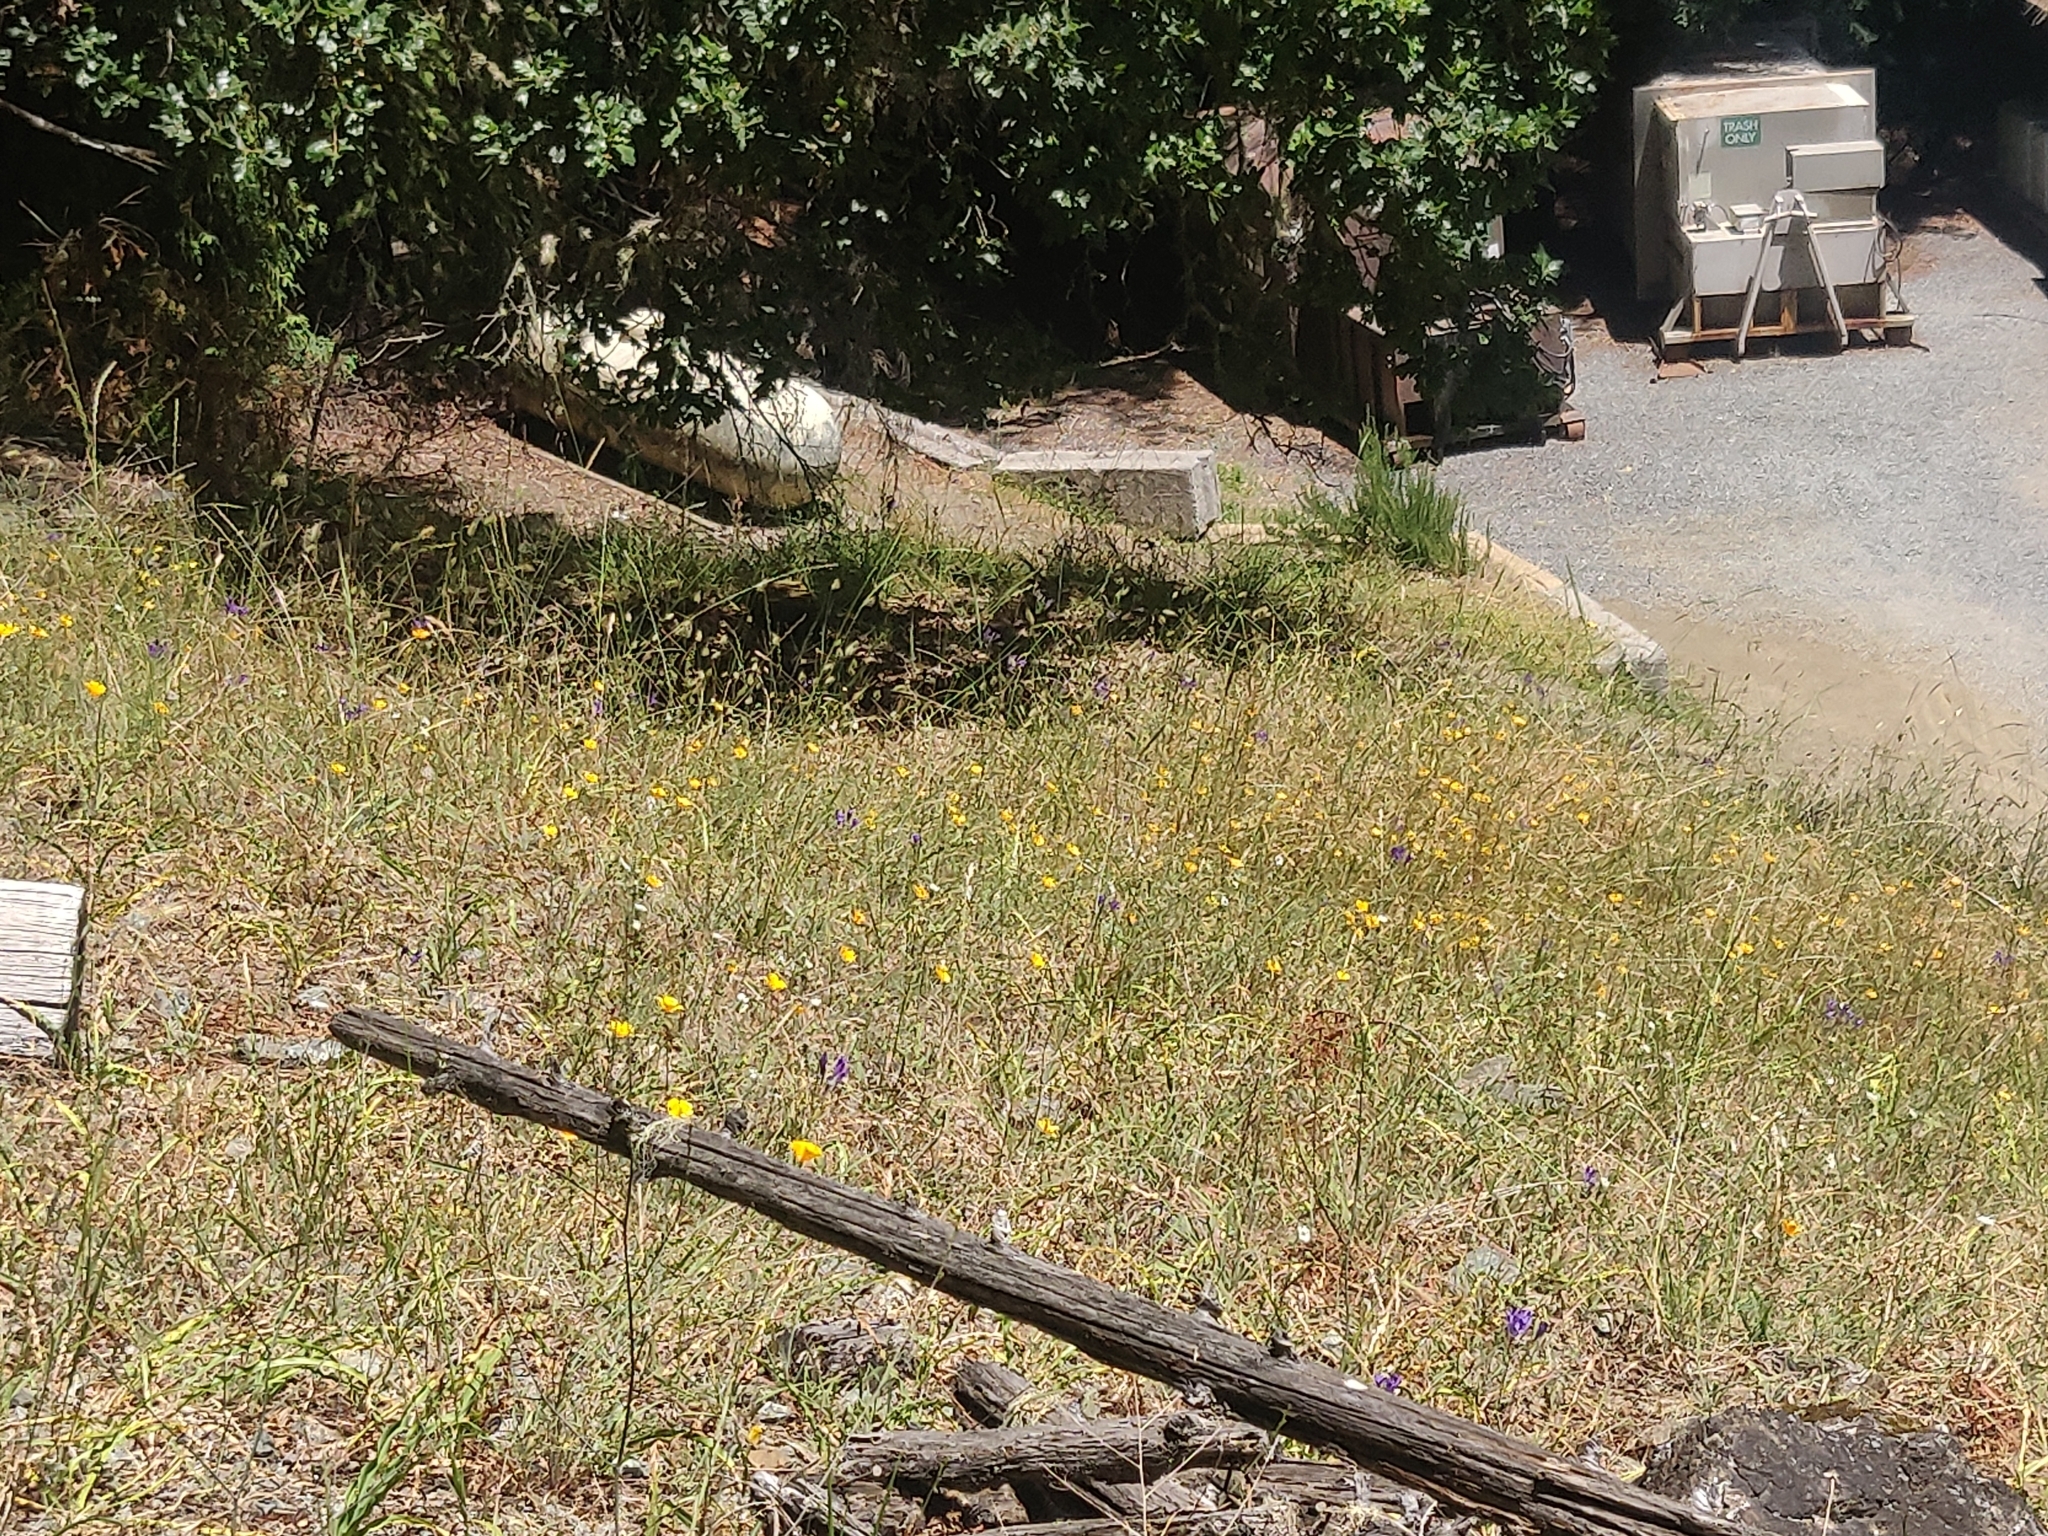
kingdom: Plantae
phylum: Tracheophyta
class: Magnoliopsida
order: Ranunculales
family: Papaveraceae
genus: Eschscholzia
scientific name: Eschscholzia californica
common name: California poppy
